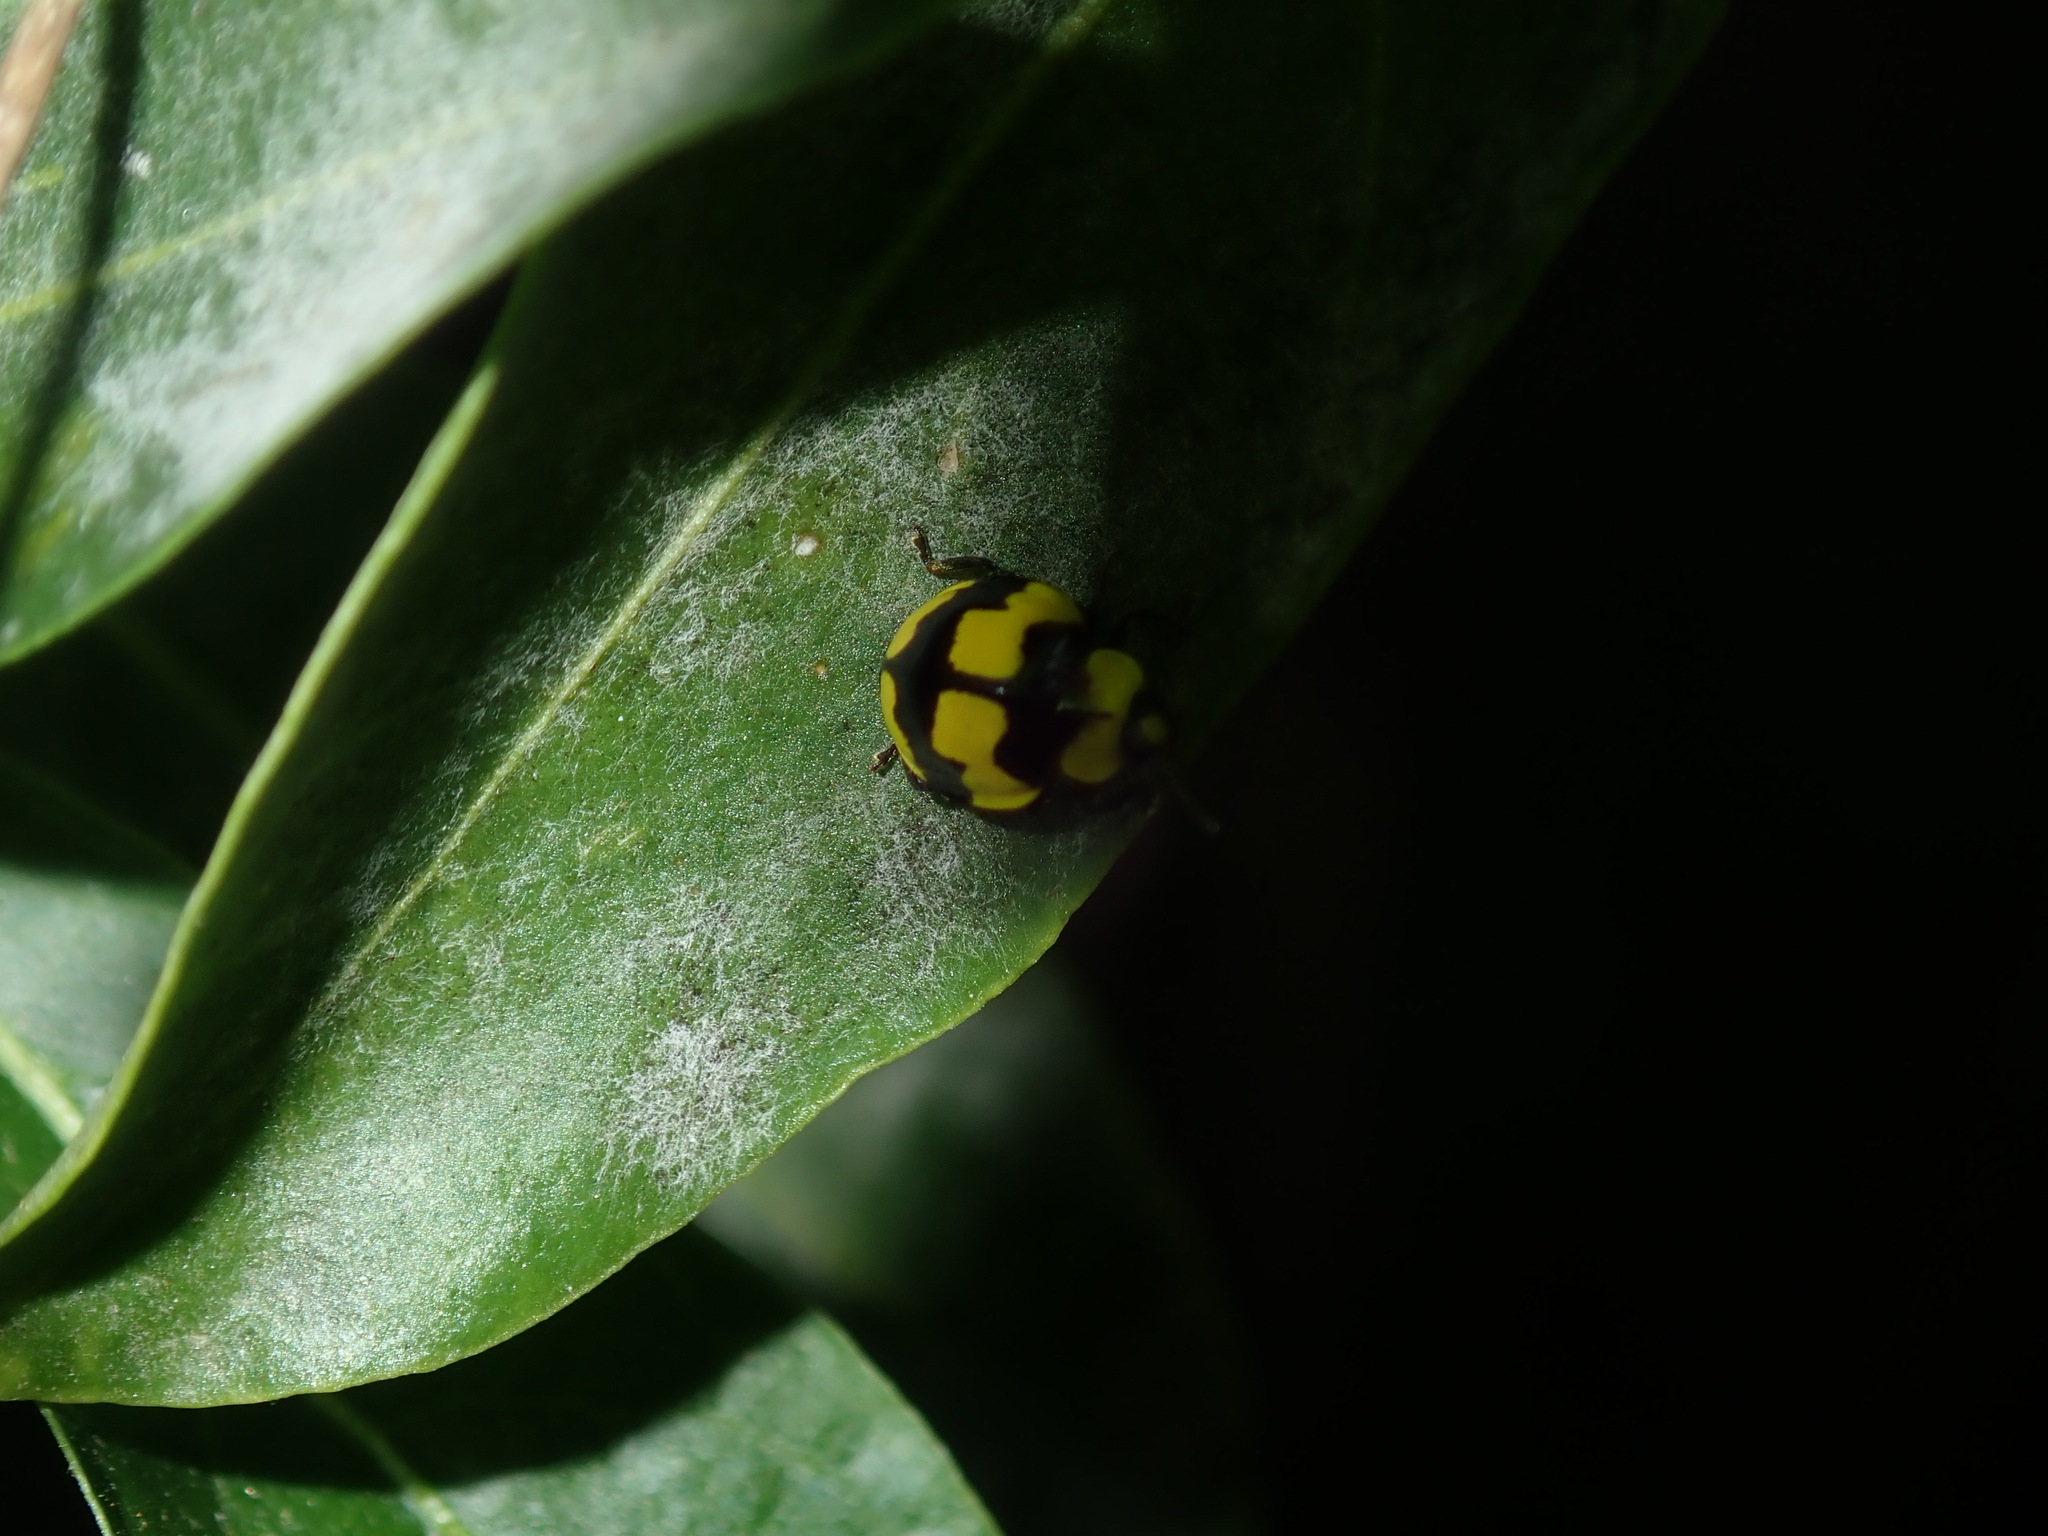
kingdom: Animalia
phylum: Arthropoda
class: Insecta
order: Coleoptera
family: Coccinellidae
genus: Illeis
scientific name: Illeis galbula
